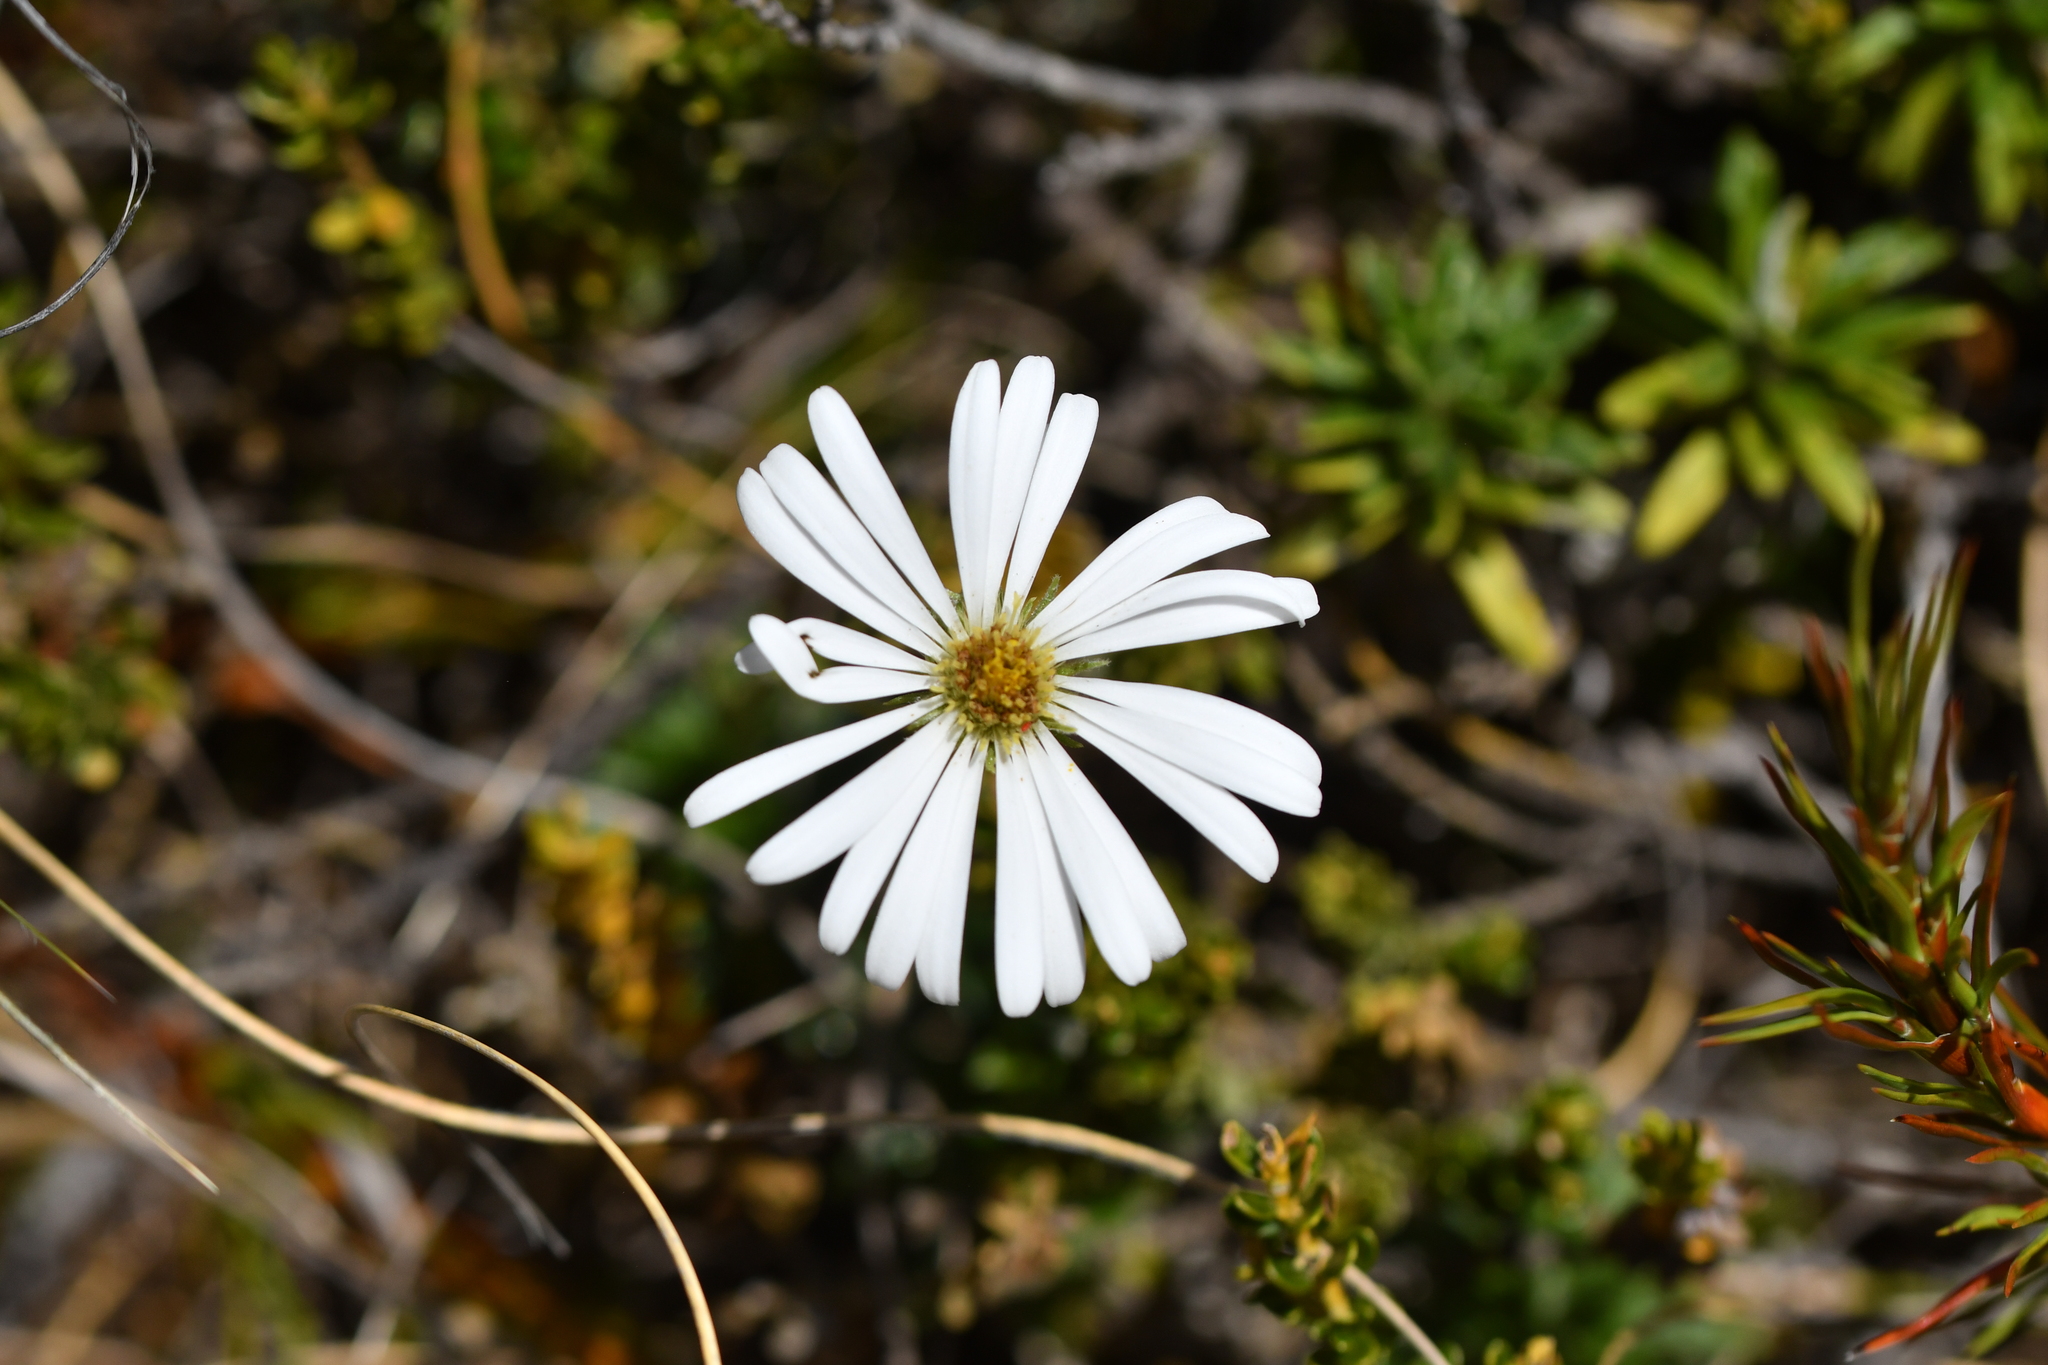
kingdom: Plantae
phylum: Tracheophyta
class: Magnoliopsida
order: Asterales
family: Asteraceae
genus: Celmisia
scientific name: Celmisia walkeri
